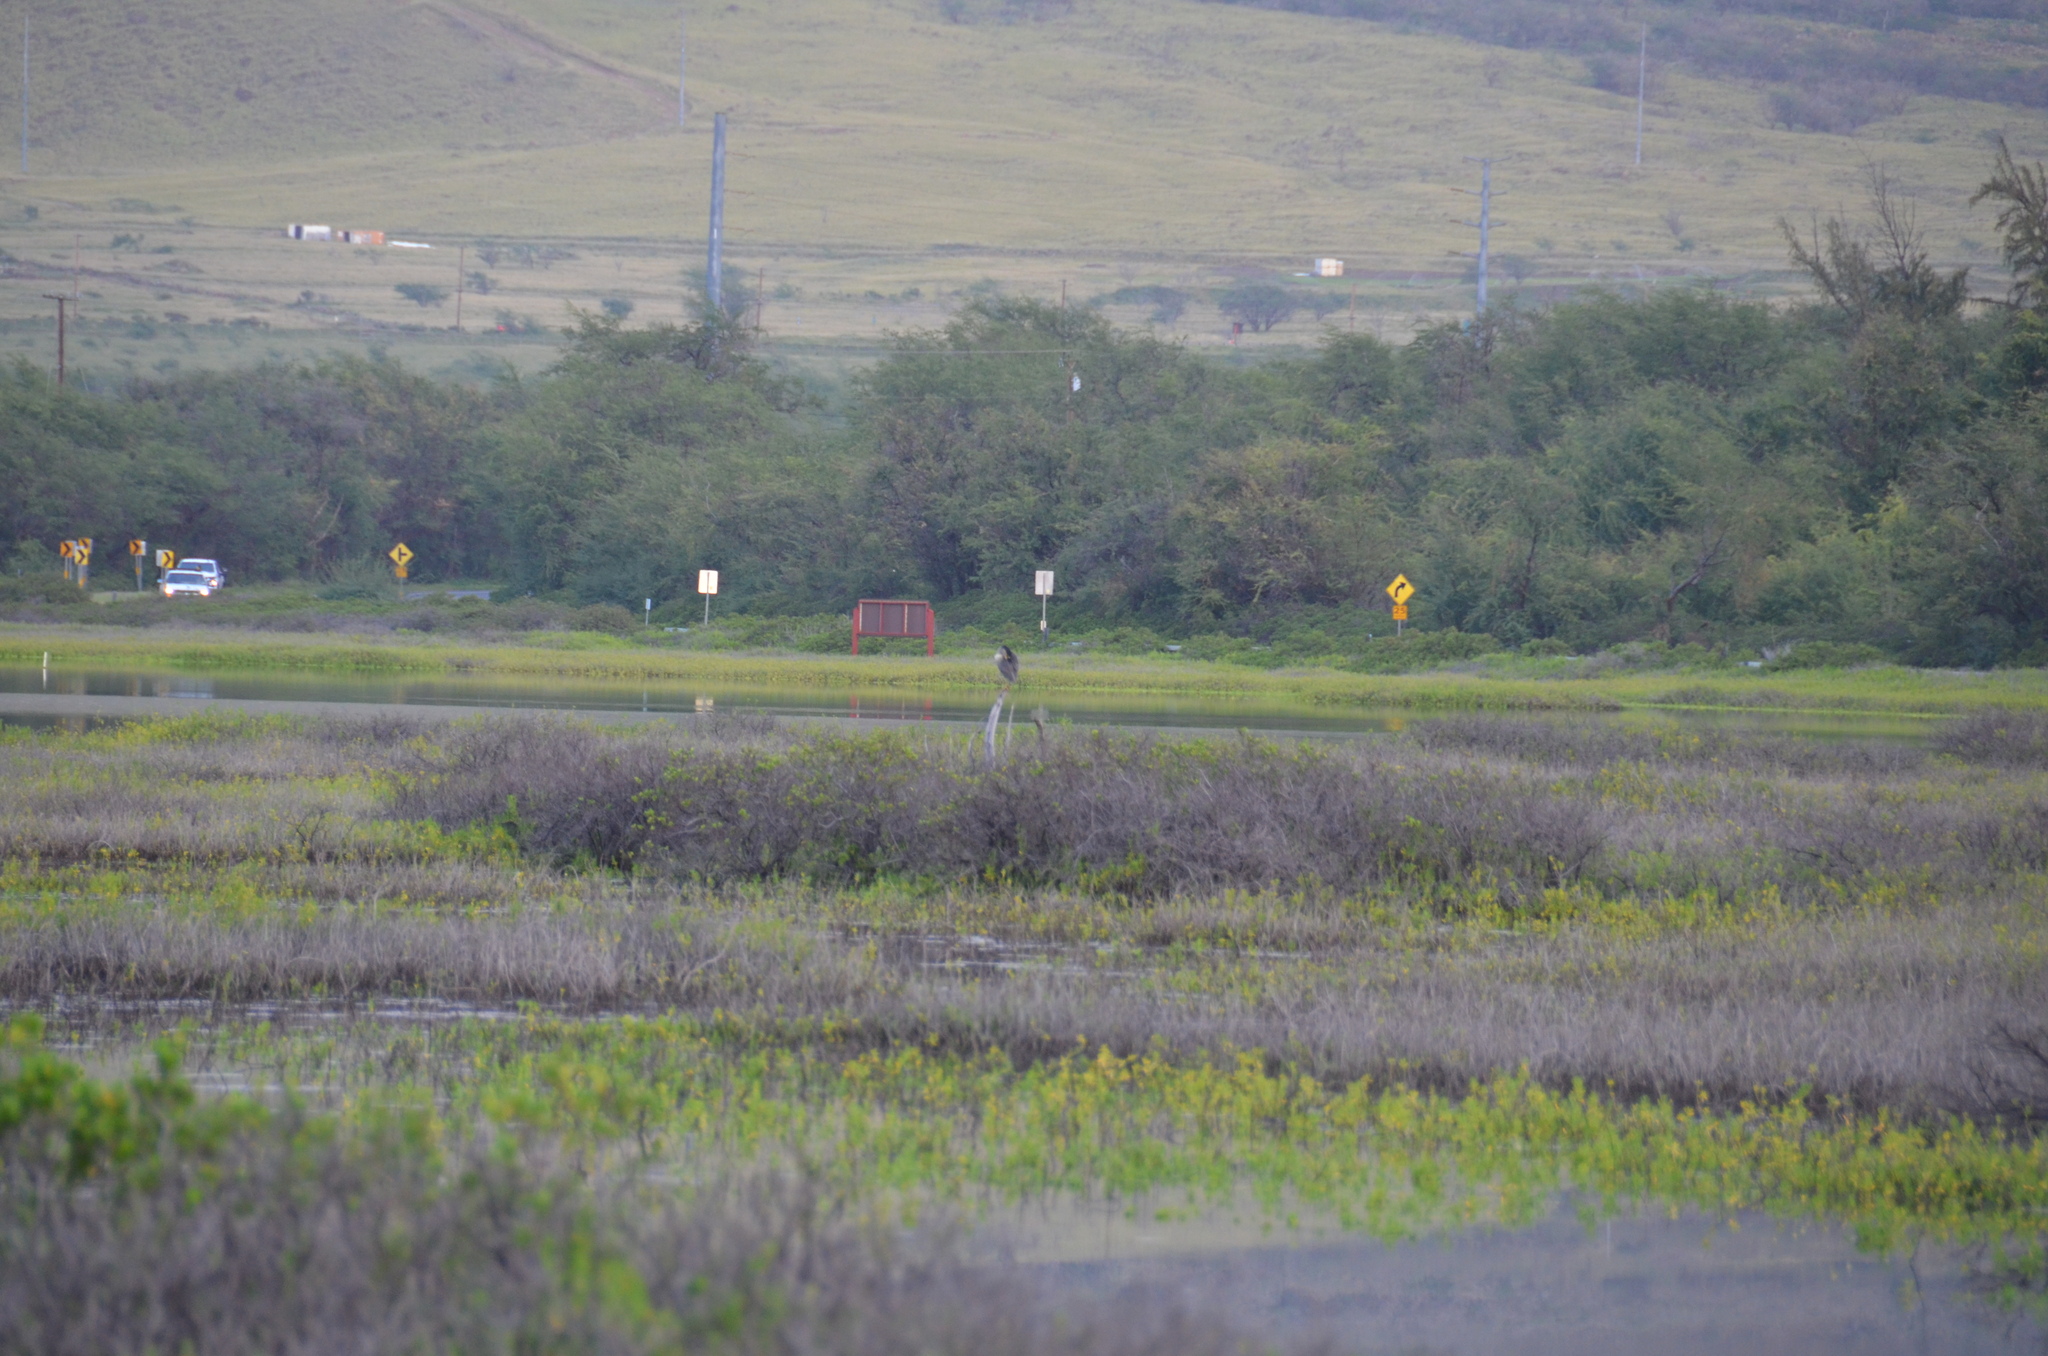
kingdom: Animalia
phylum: Chordata
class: Aves
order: Pelecaniformes
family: Ardeidae
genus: Nycticorax
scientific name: Nycticorax nycticorax
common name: Black-crowned night heron
